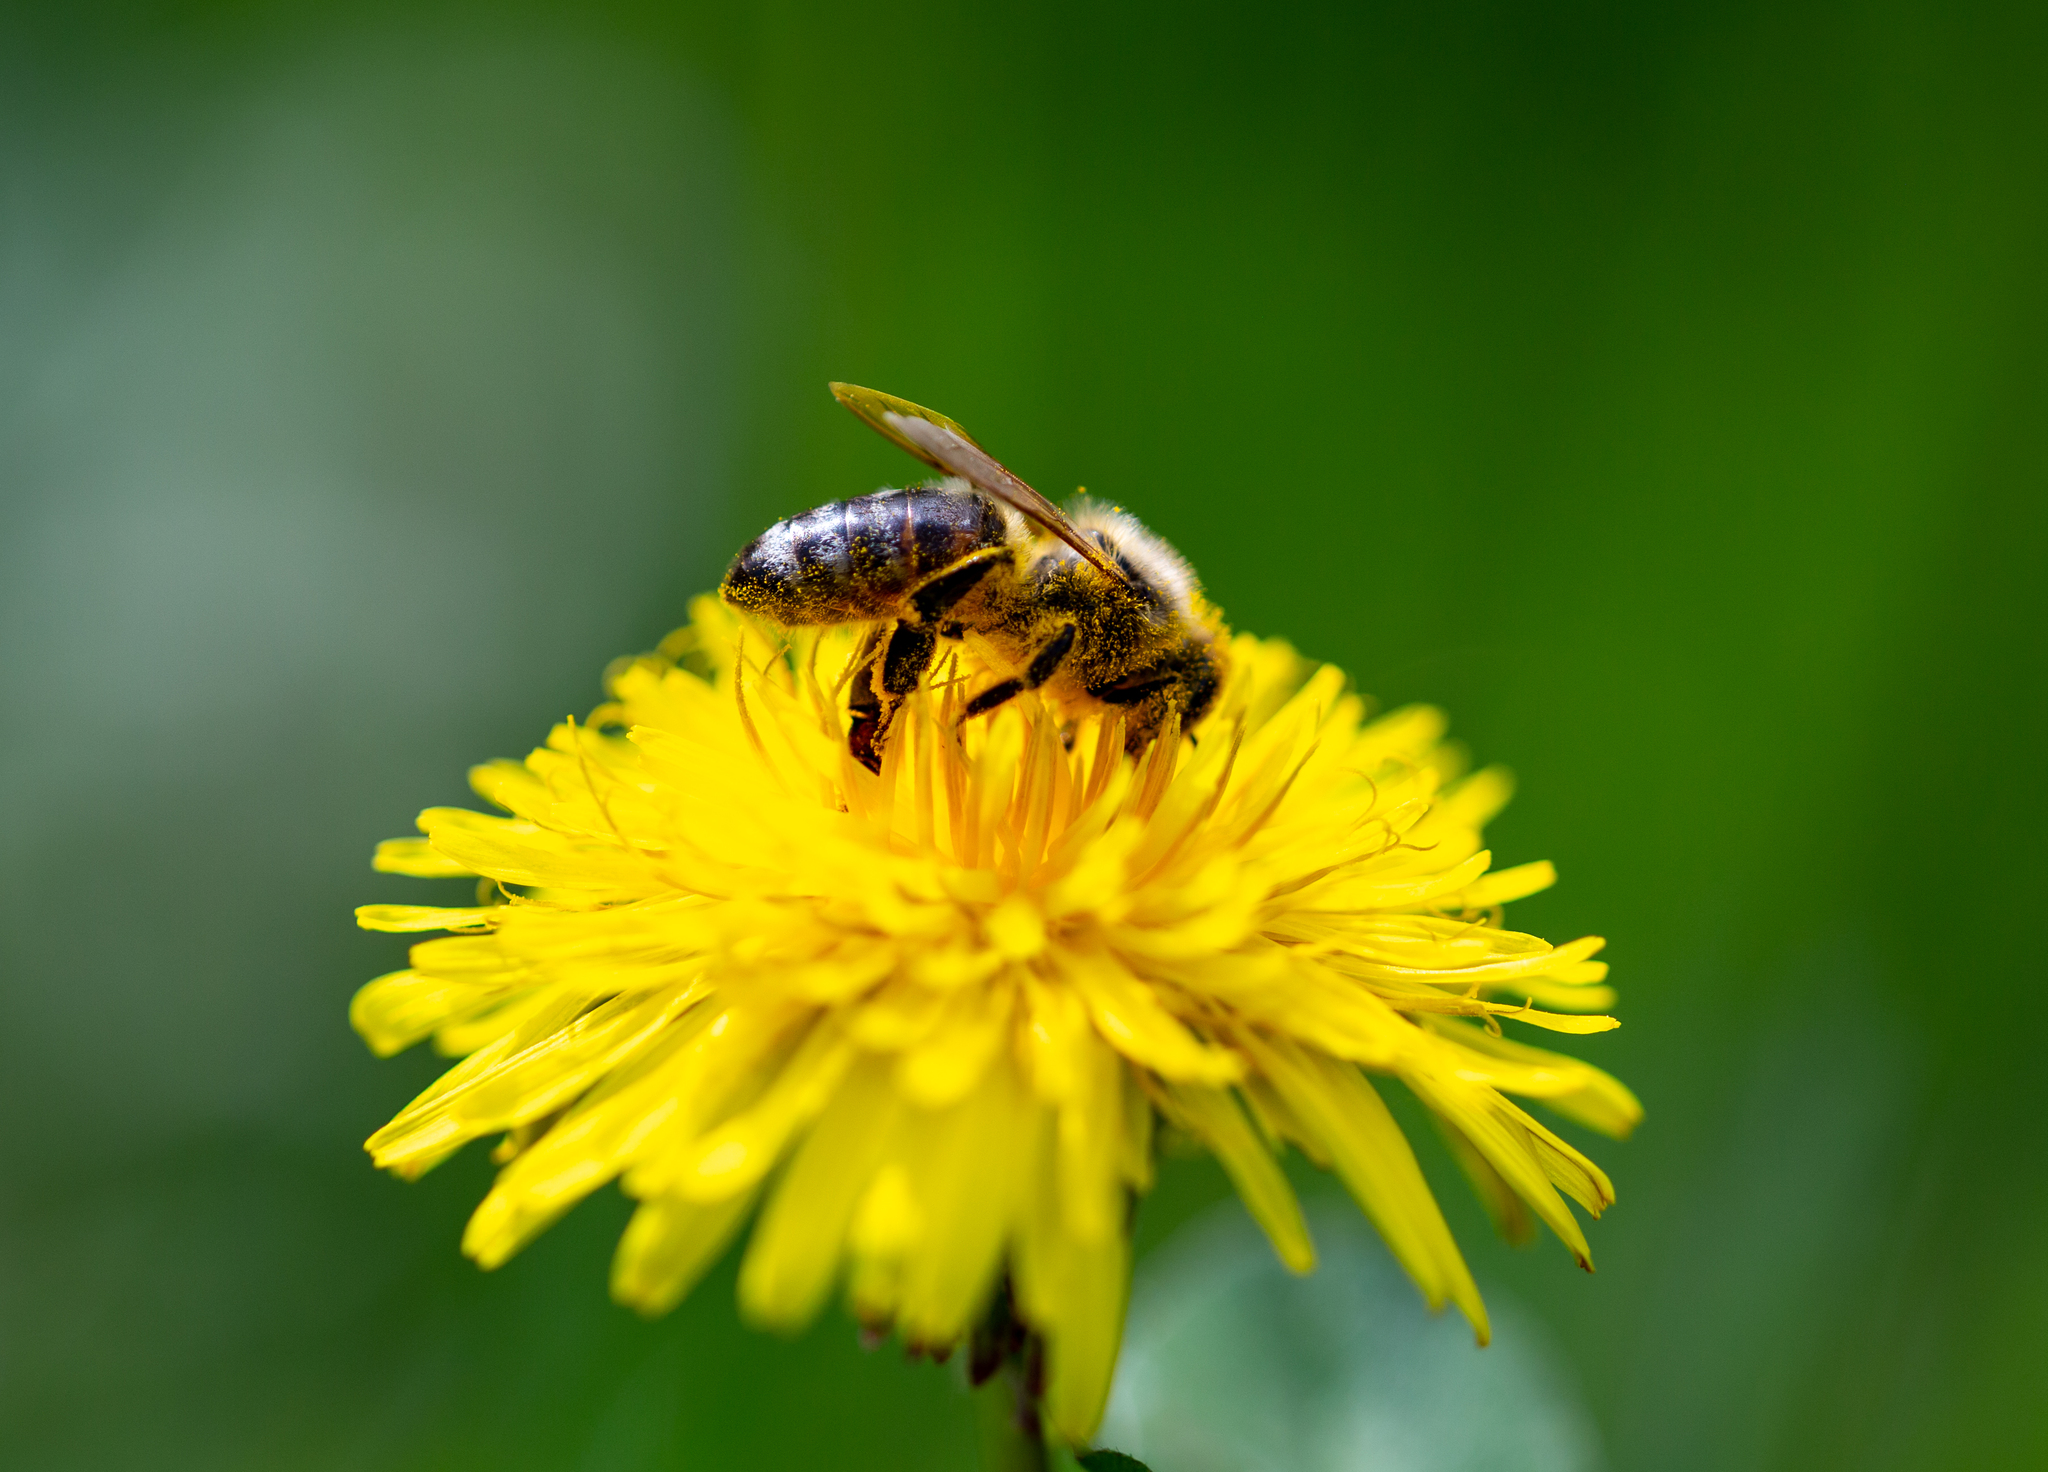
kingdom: Animalia
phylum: Arthropoda
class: Insecta
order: Hymenoptera
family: Apidae
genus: Apis
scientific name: Apis mellifera
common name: Honey bee
